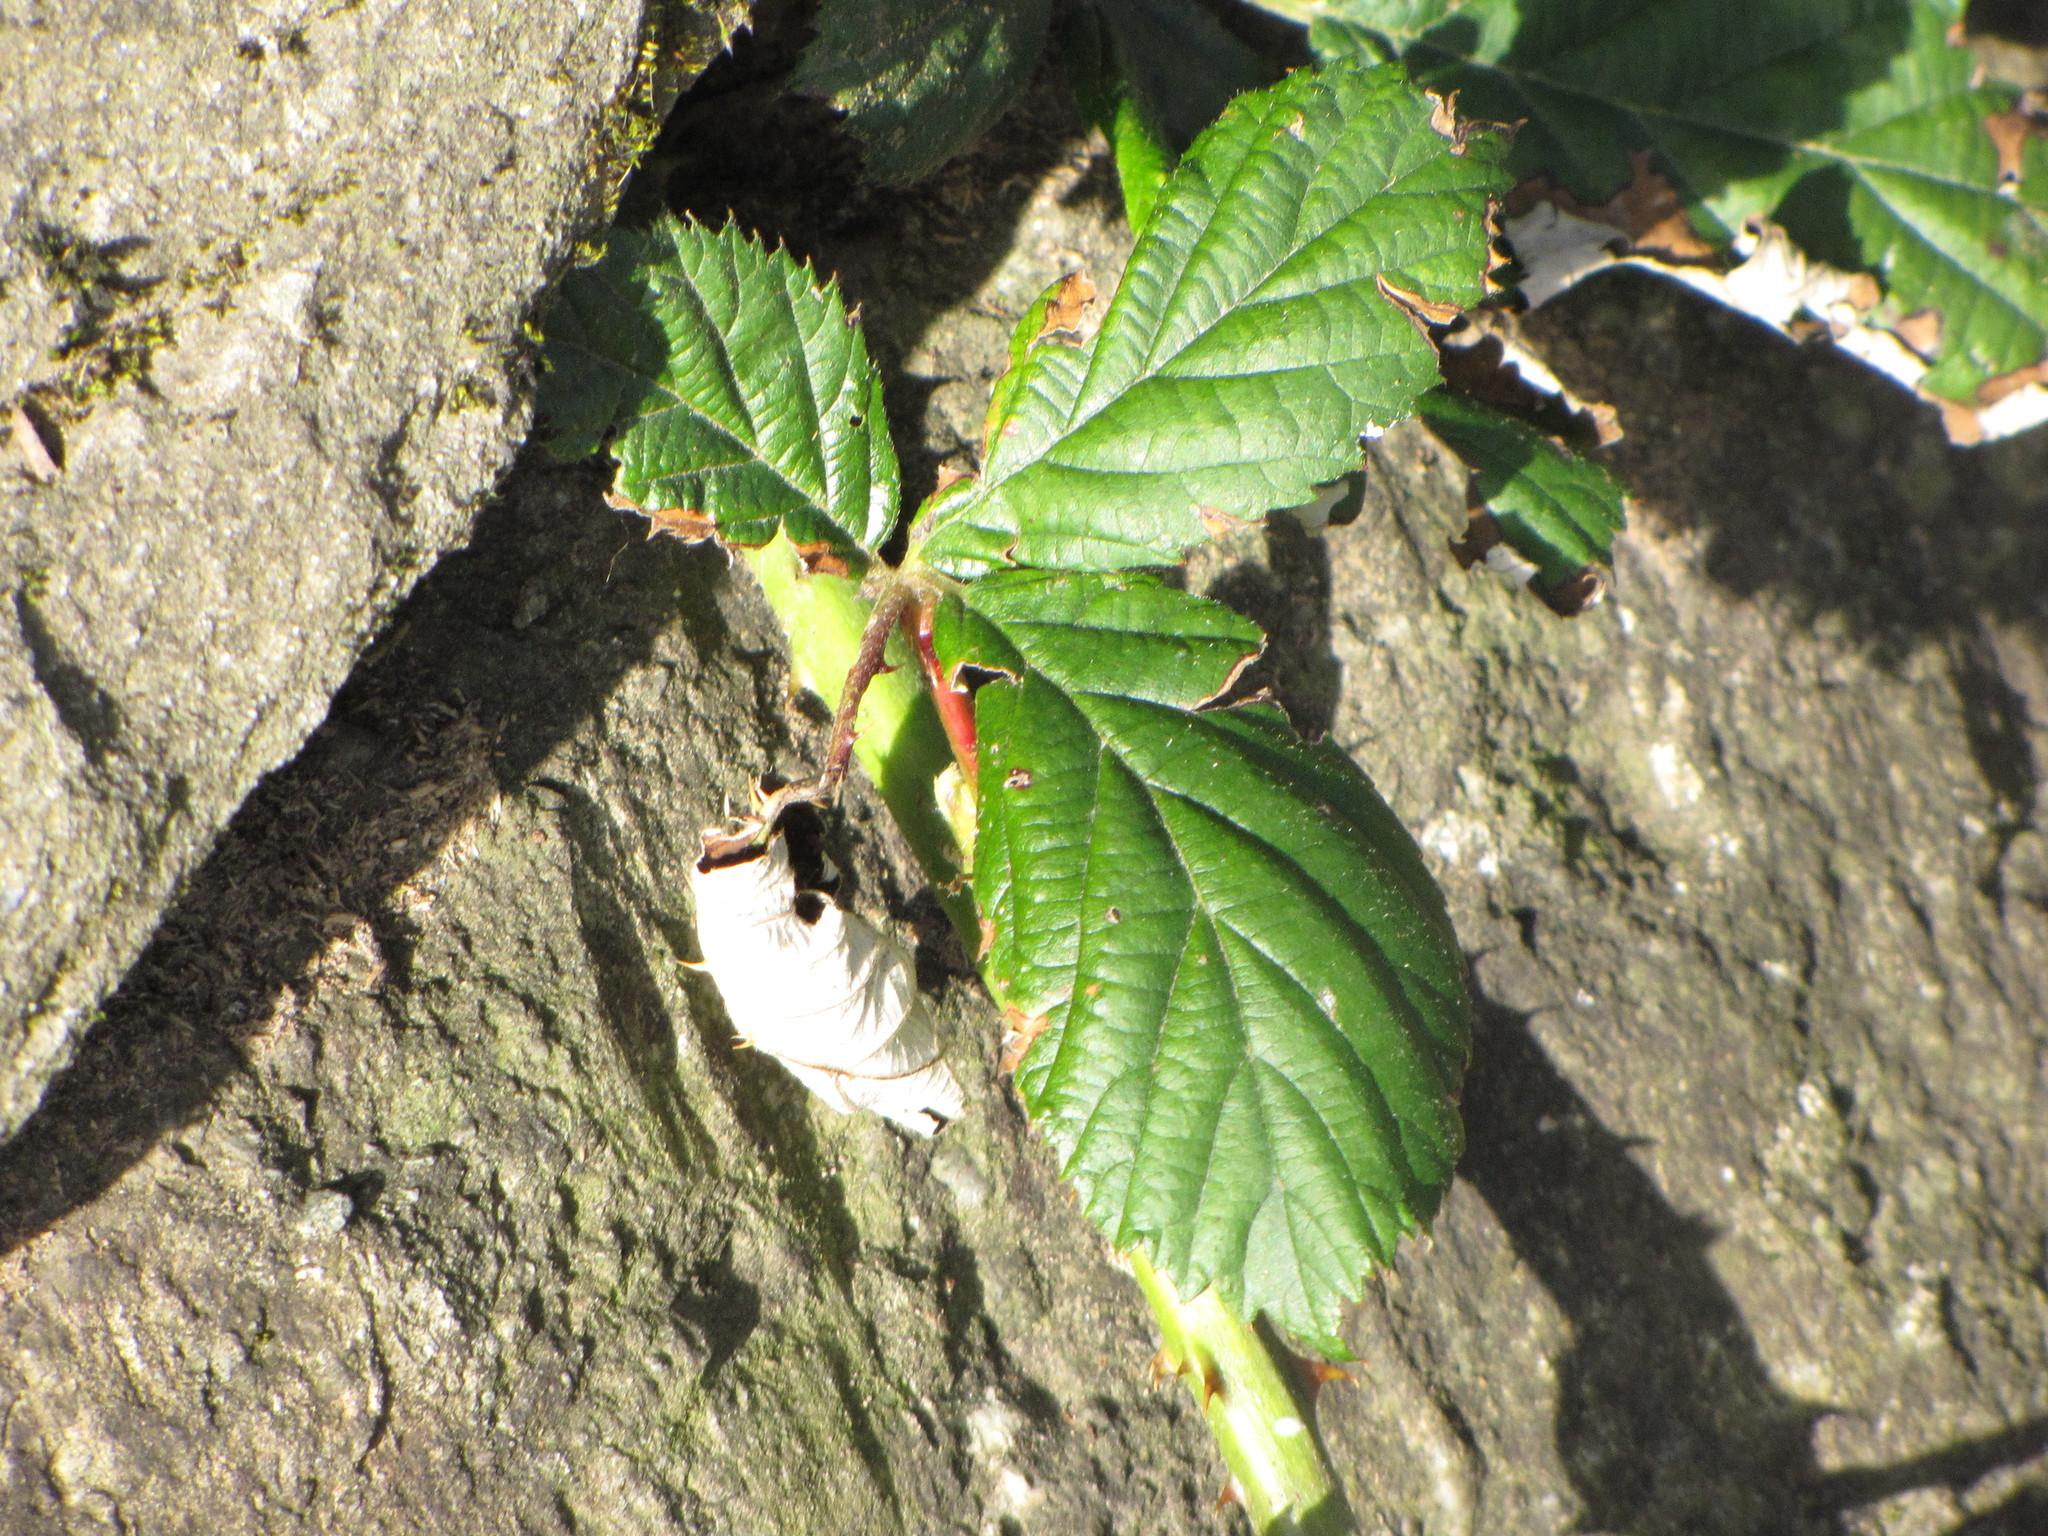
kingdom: Plantae
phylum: Tracheophyta
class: Magnoliopsida
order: Rosales
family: Rosaceae
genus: Rubus
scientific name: Rubus armeniacus
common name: Himalayan blackberry
